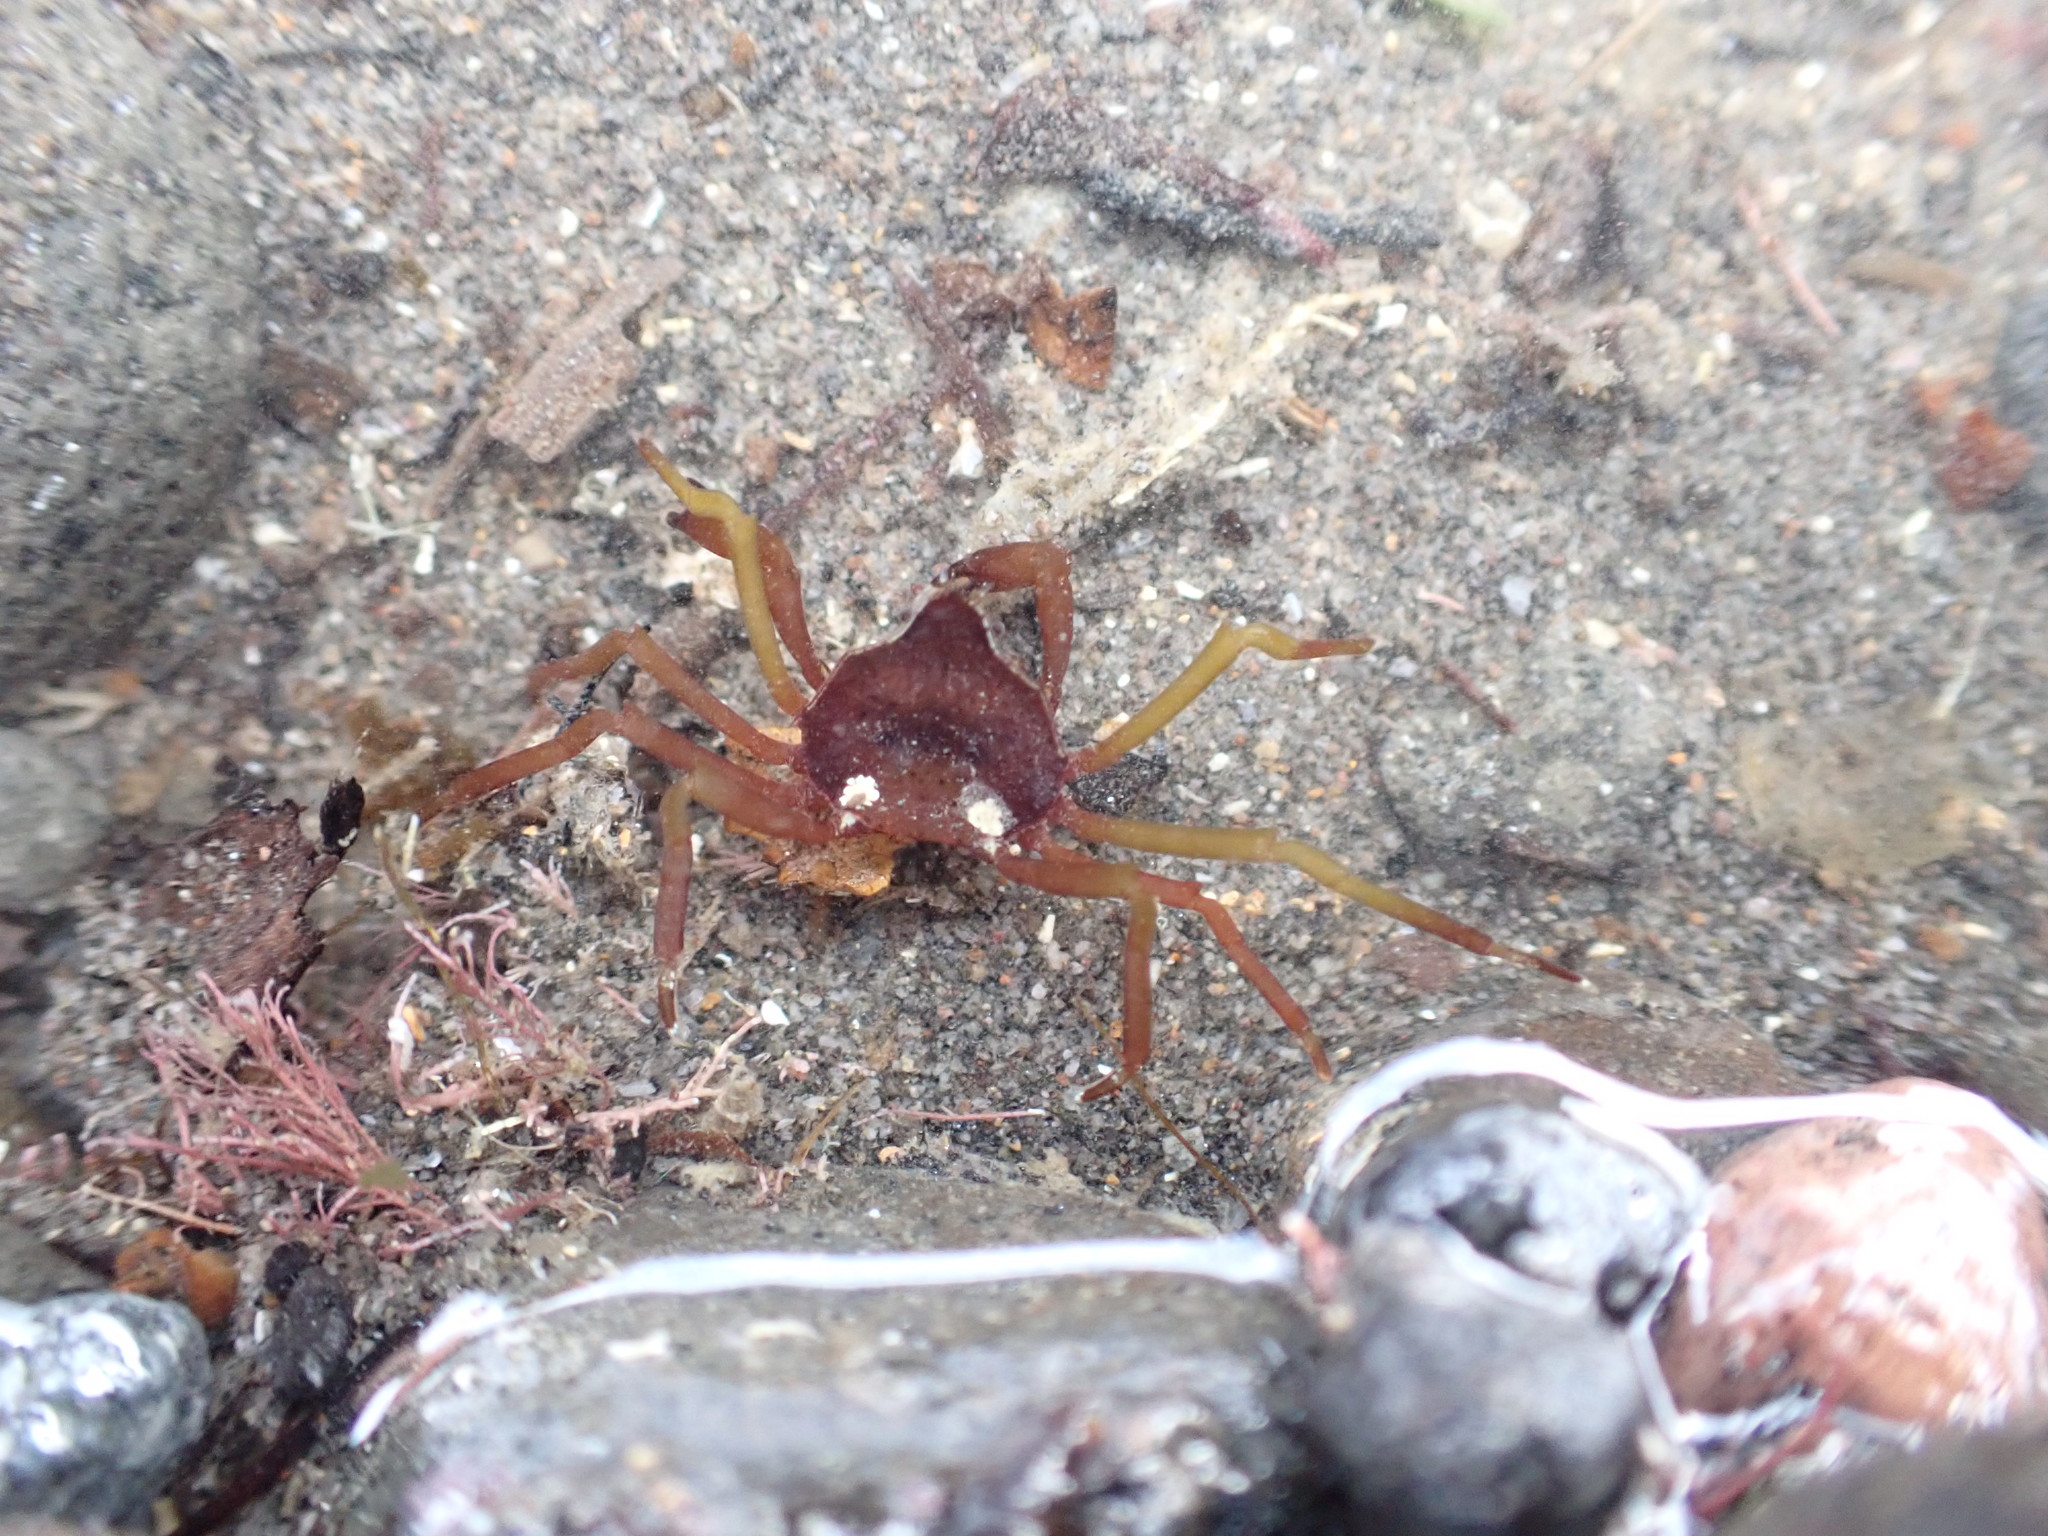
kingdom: Animalia
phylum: Arthropoda
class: Malacostraca
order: Decapoda
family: Hymenosomatidae
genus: Elamena
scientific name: Elamena producta
